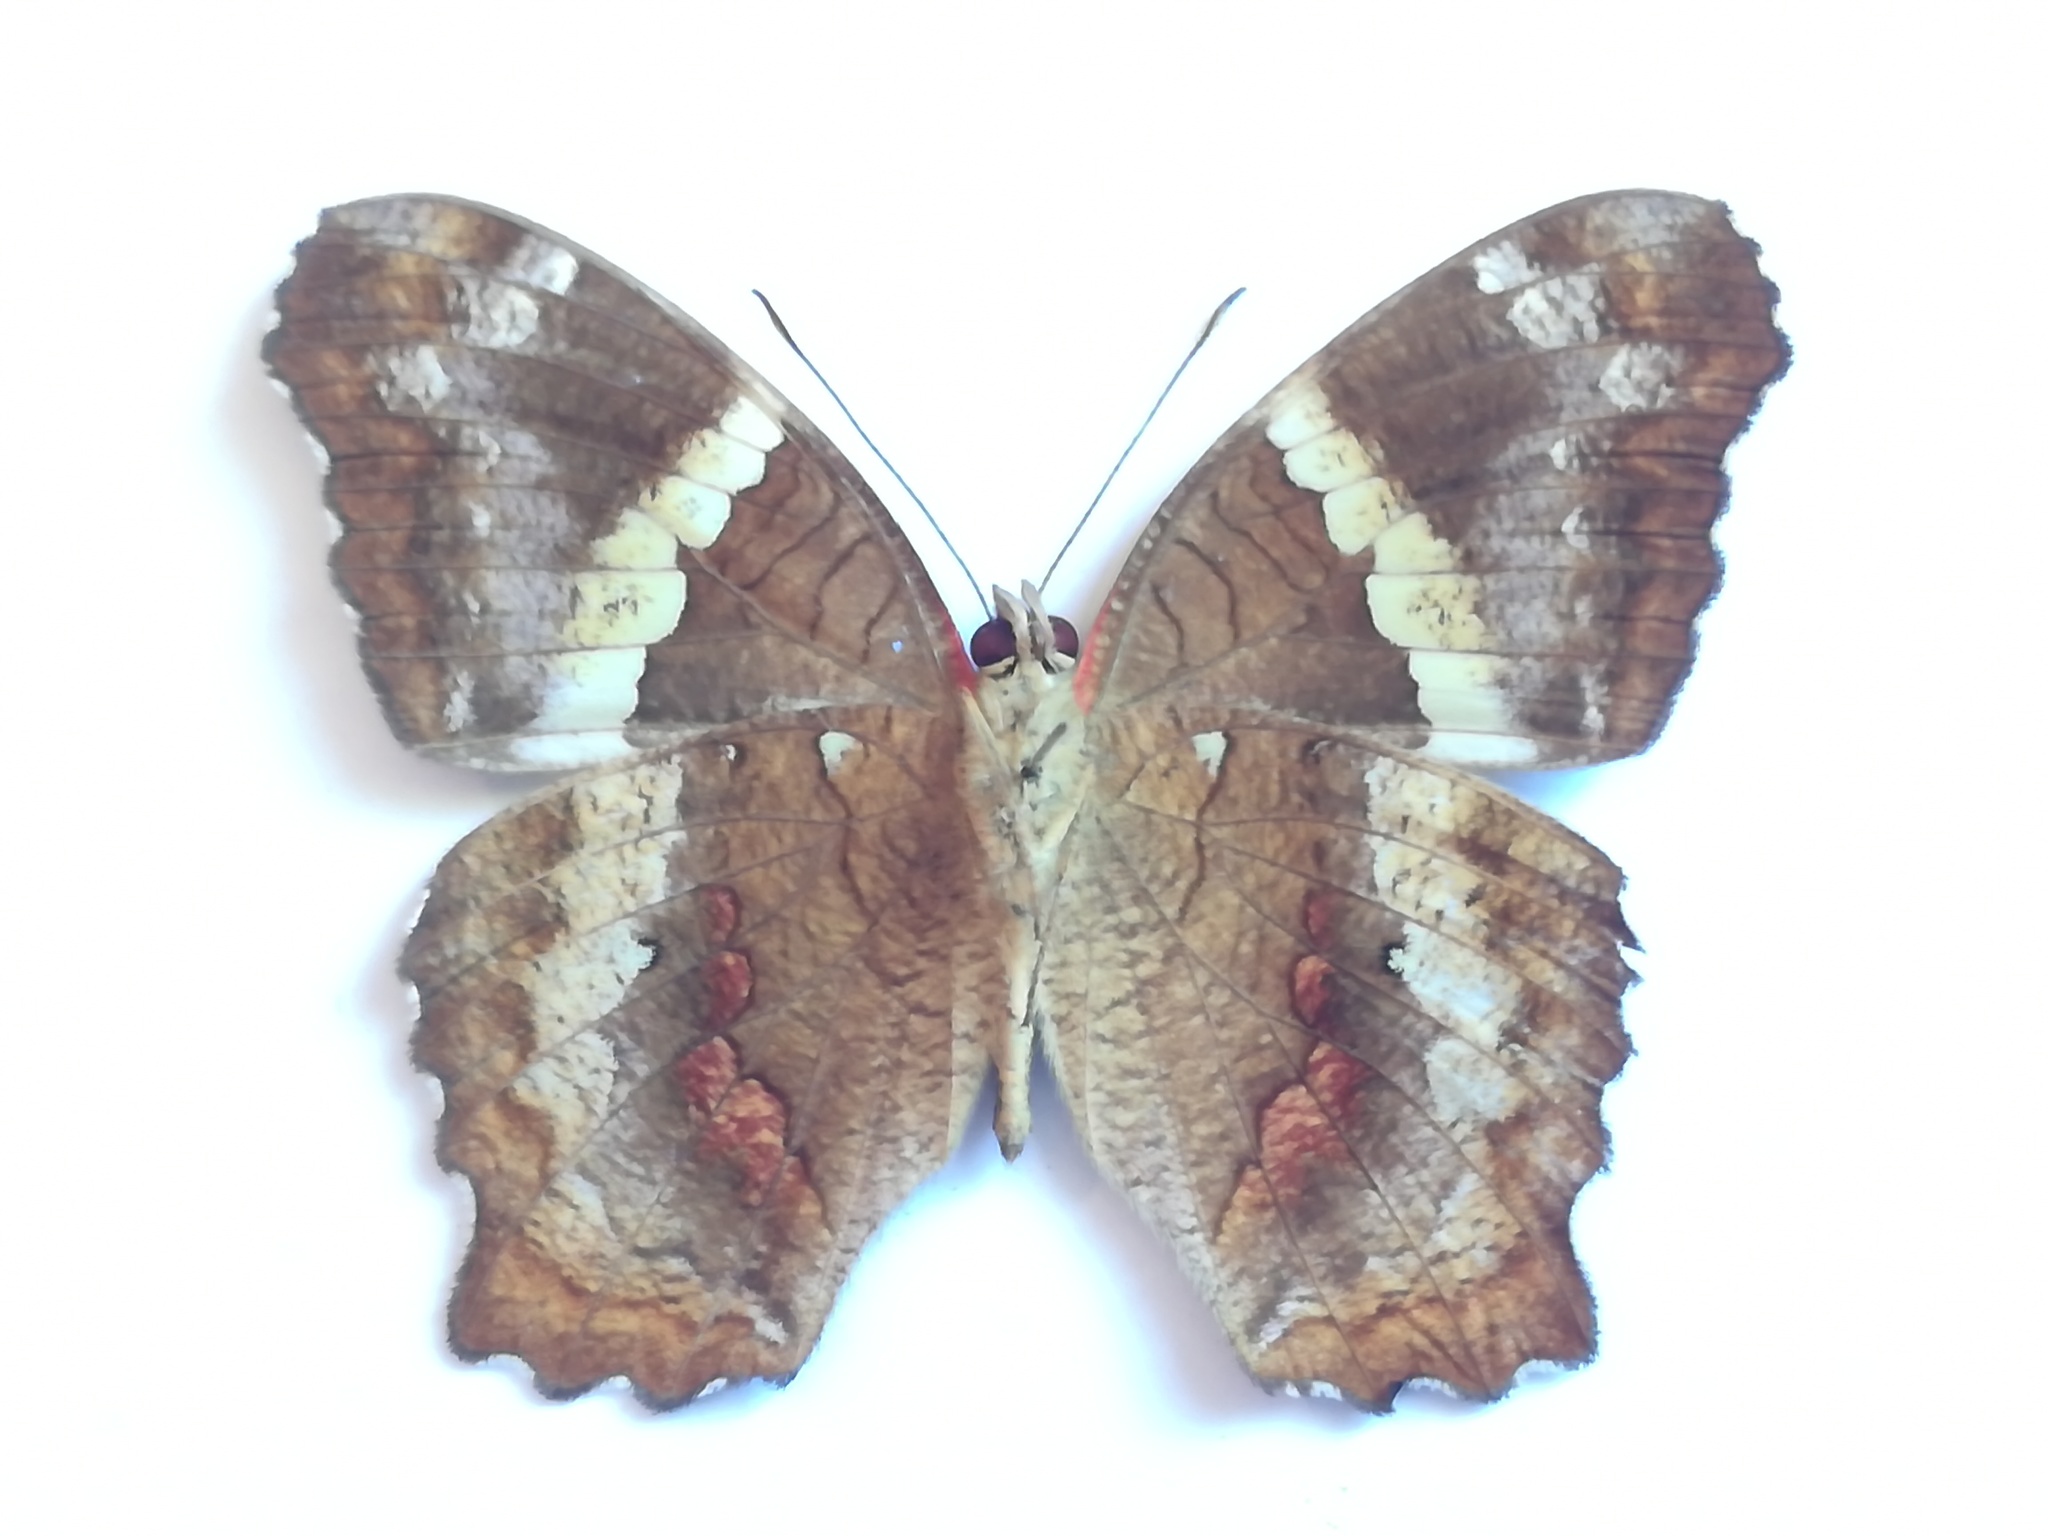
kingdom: Animalia
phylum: Arthropoda
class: Insecta
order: Lepidoptera
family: Nymphalidae
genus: Anartia
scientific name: Anartia fatima
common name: Banded peacock
